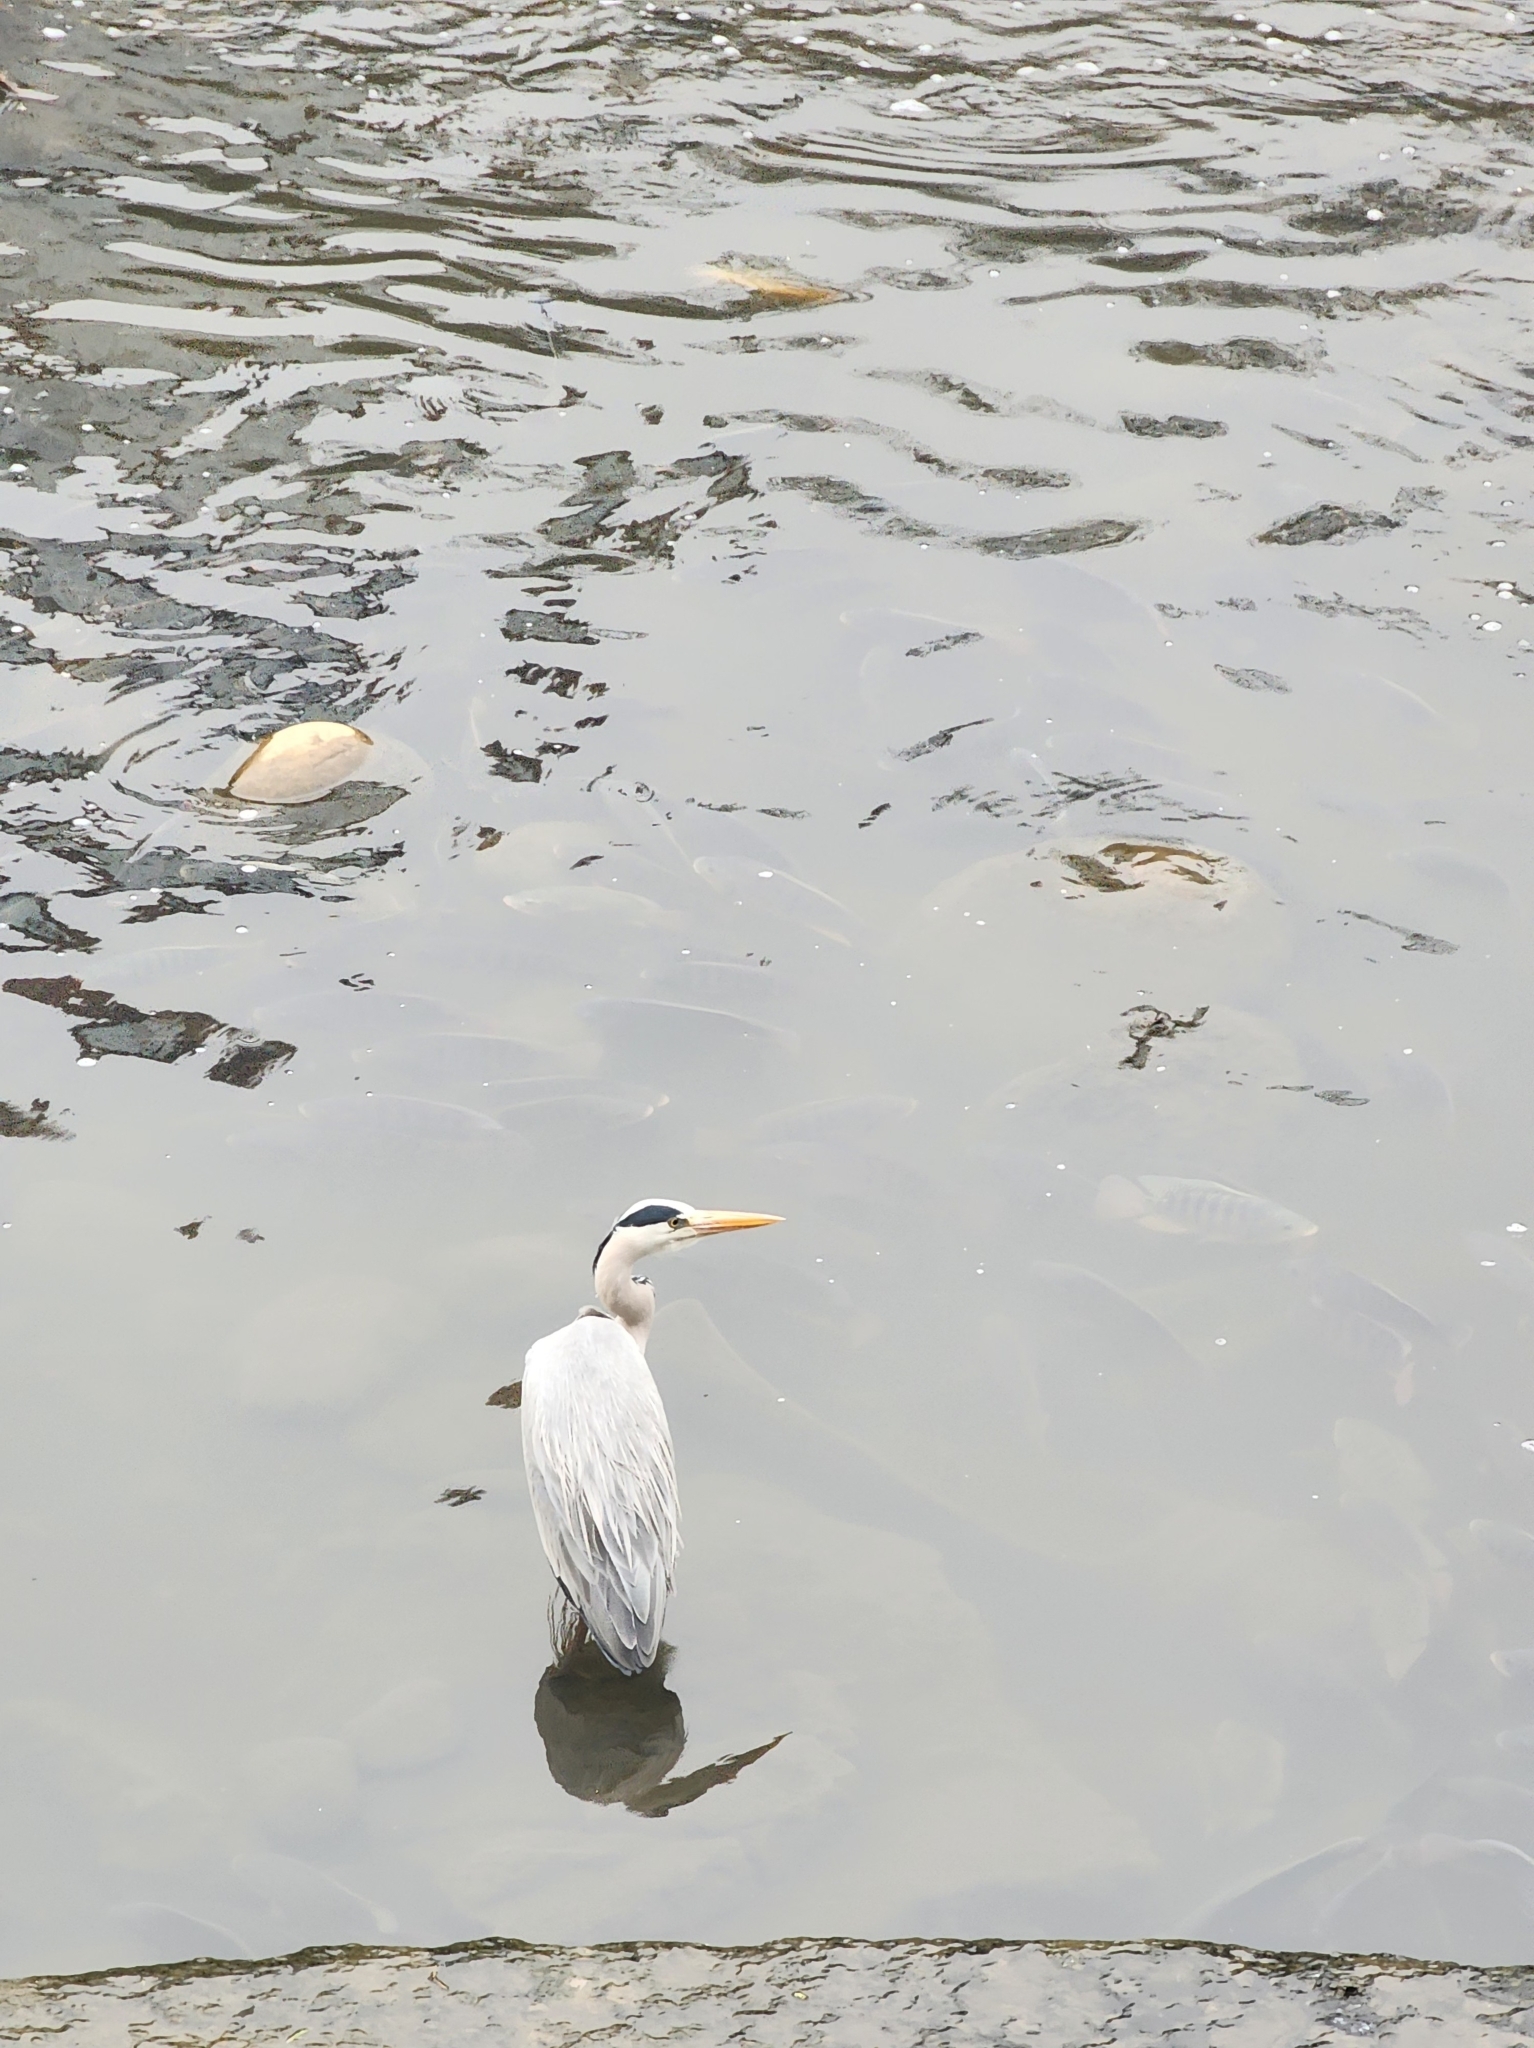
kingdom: Animalia
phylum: Chordata
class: Aves
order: Pelecaniformes
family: Ardeidae
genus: Ardea
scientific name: Ardea cinerea
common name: Grey heron
